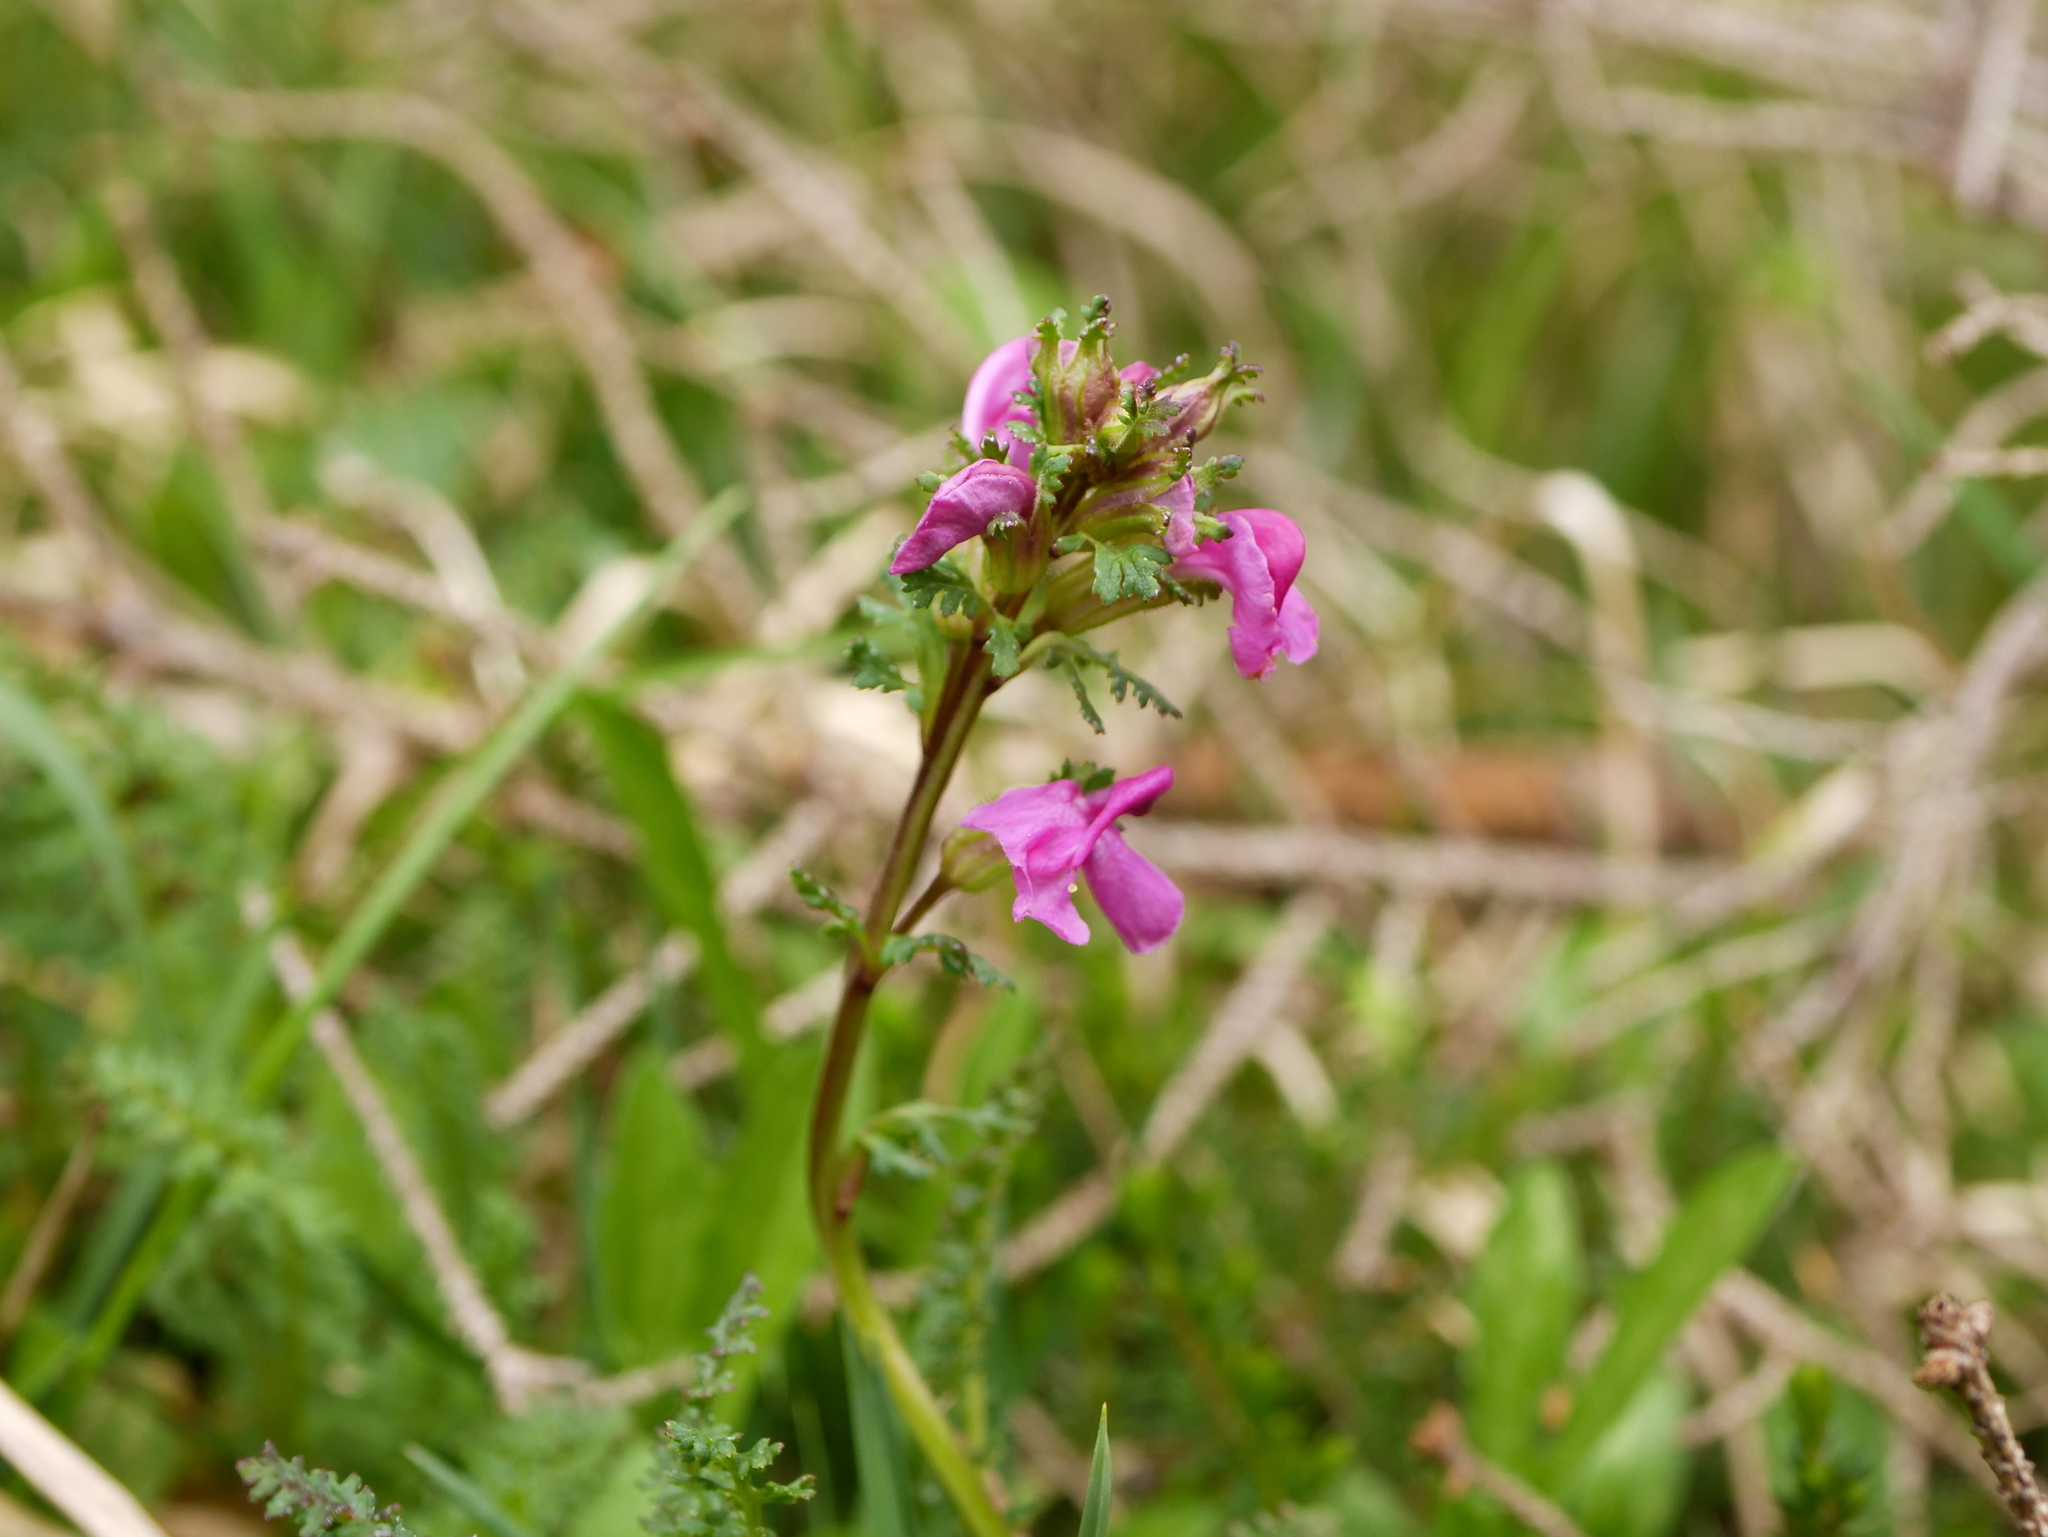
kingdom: Plantae
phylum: Tracheophyta
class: Magnoliopsida
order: Lamiales
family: Orobanchaceae
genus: Pedicularis
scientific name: Pedicularis rostratocapitata
